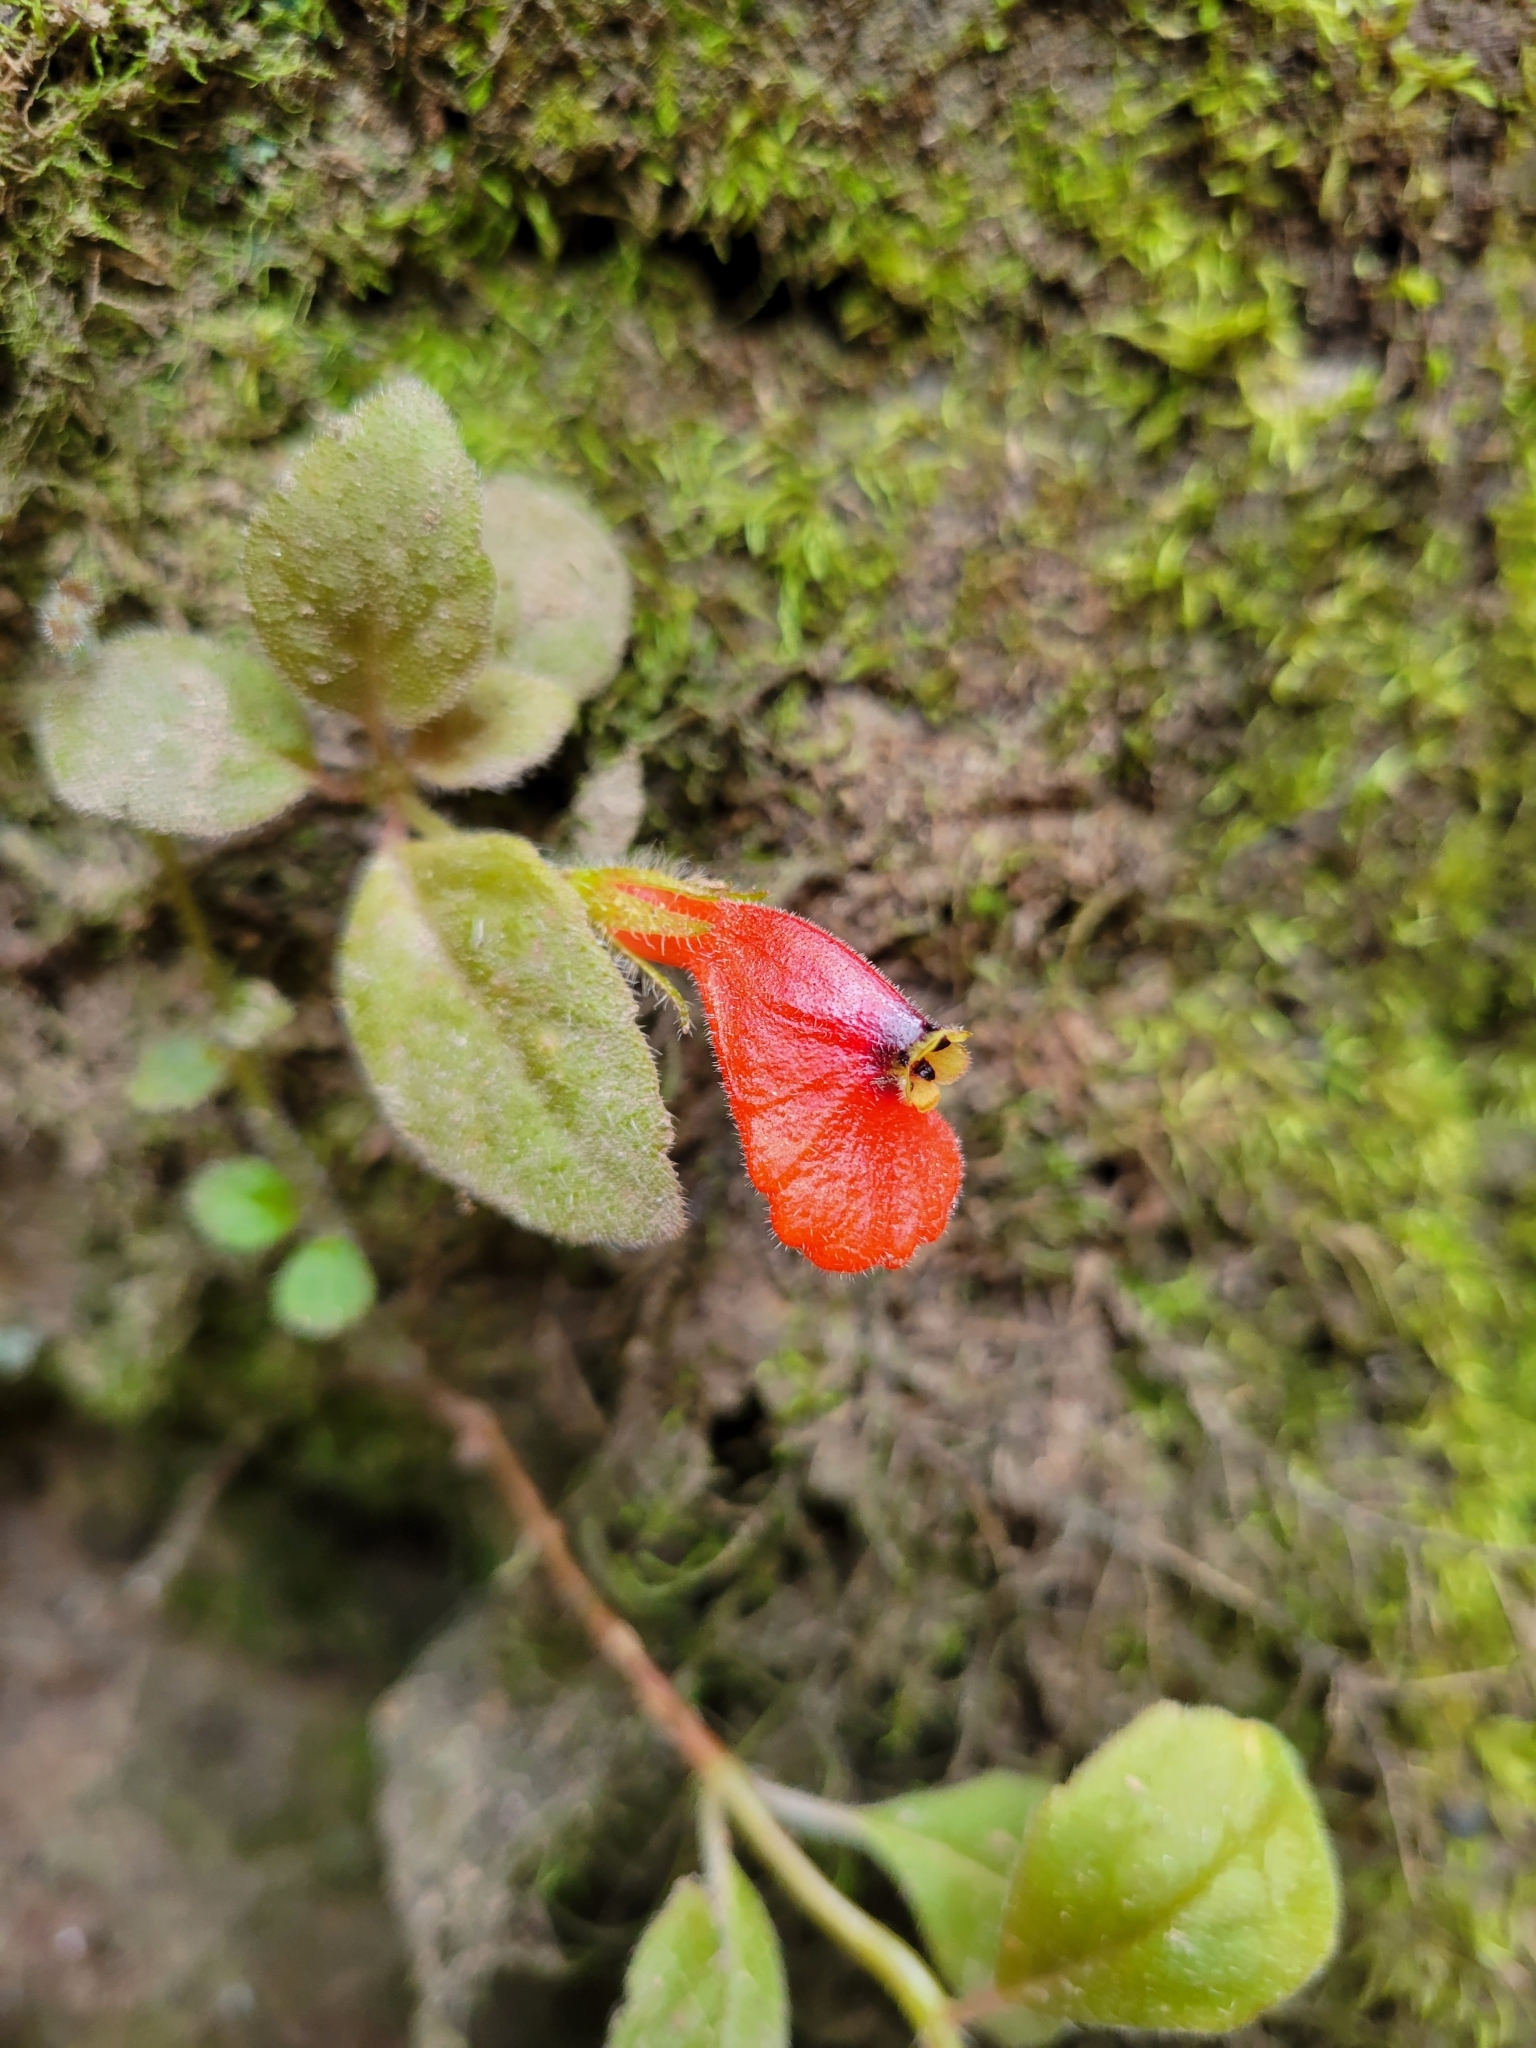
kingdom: Plantae
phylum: Tracheophyta
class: Magnoliopsida
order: Lamiales
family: Gesneriaceae
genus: Pachycaulos
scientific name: Pachycaulos nummularia
